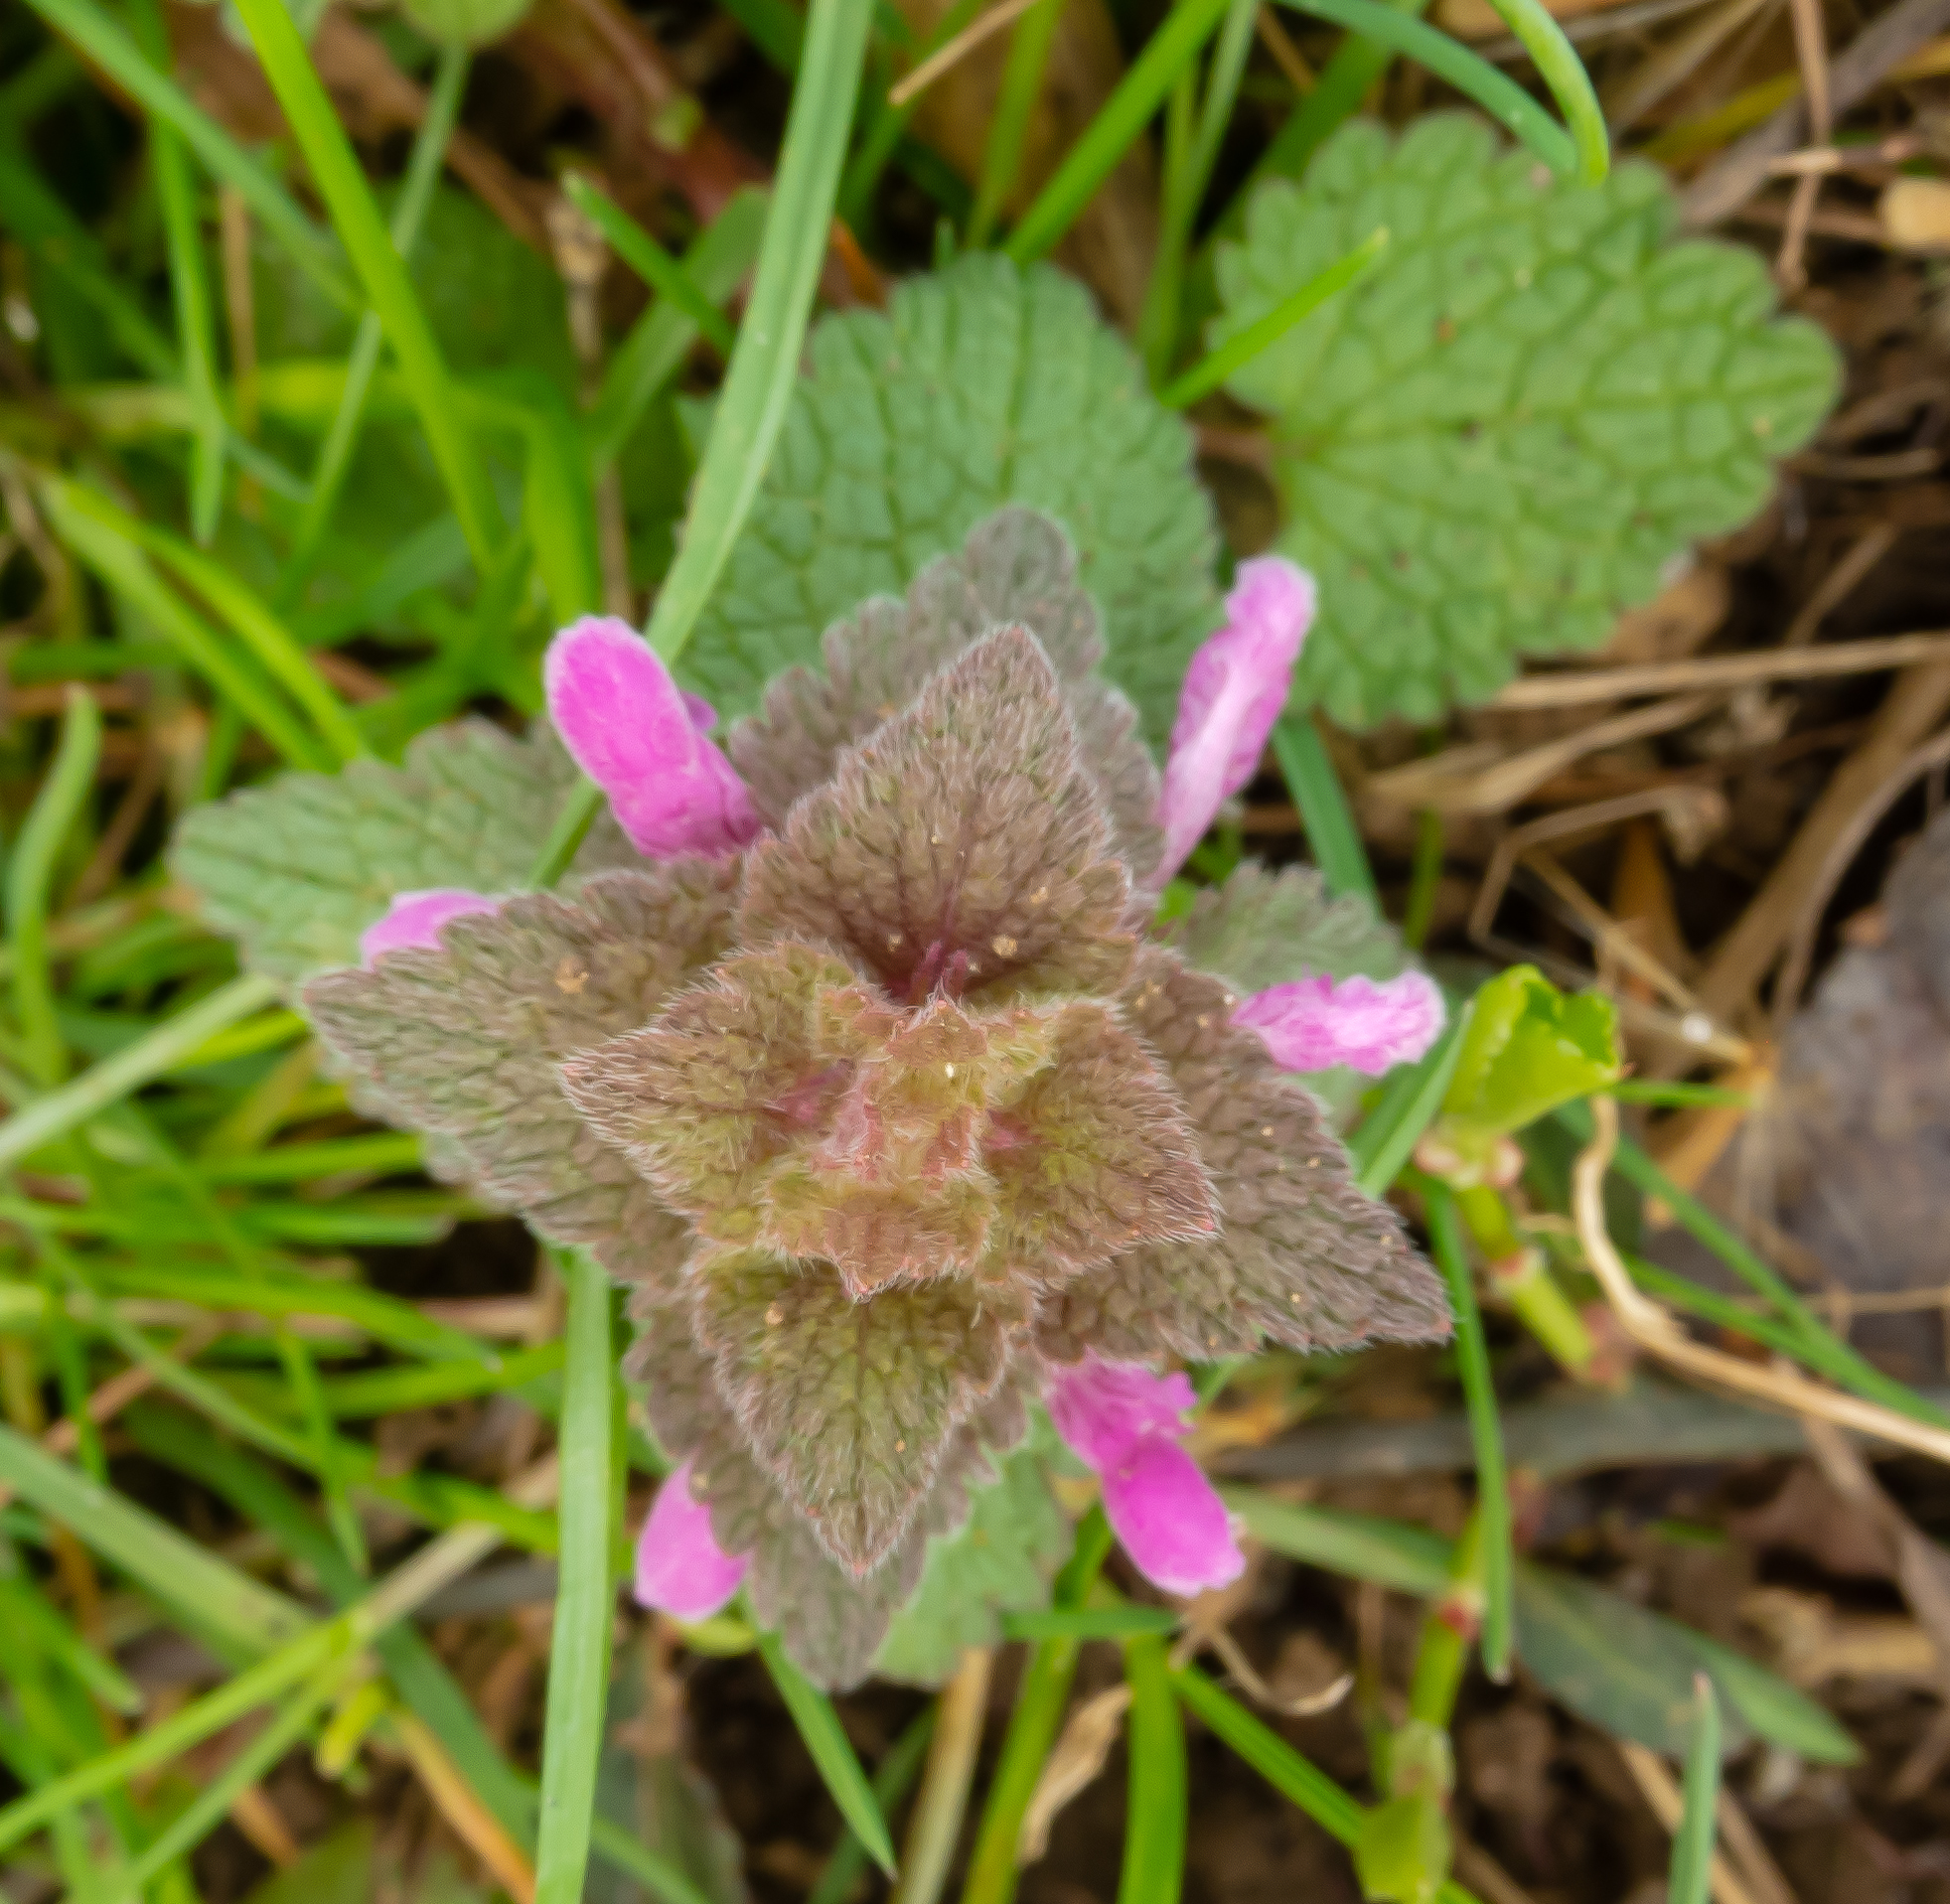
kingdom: Plantae
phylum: Tracheophyta
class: Magnoliopsida
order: Lamiales
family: Lamiaceae
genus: Lamium
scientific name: Lamium purpureum
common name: Red dead-nettle
